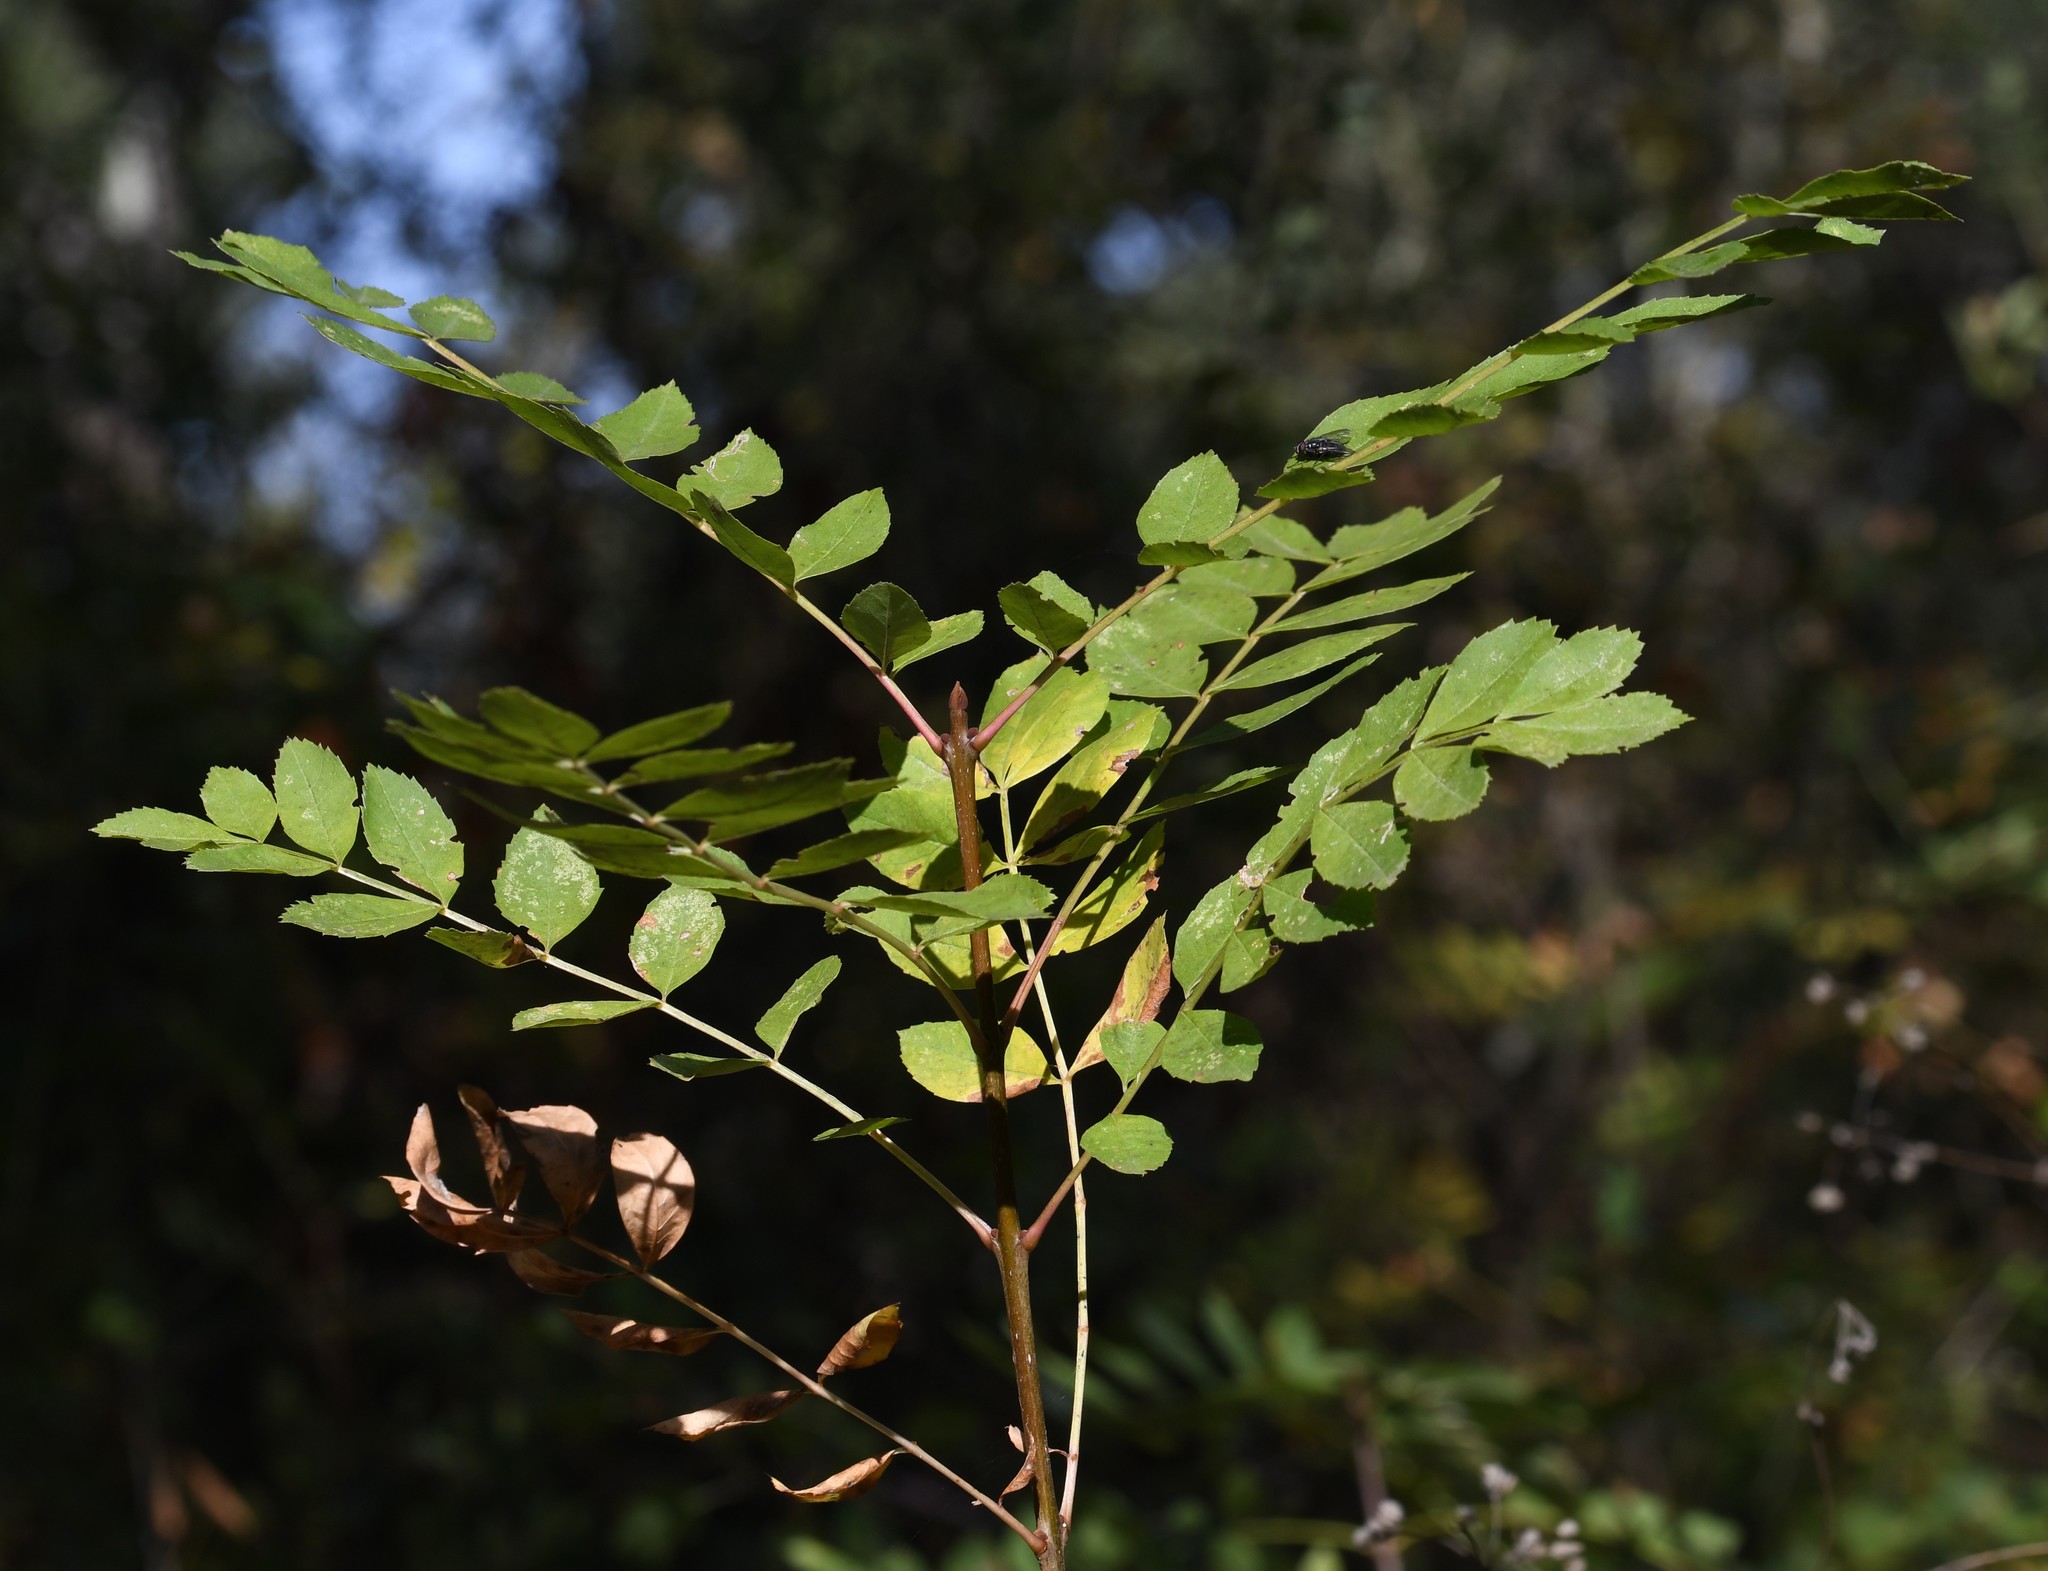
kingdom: Plantae
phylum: Tracheophyta
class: Magnoliopsida
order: Lamiales
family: Oleaceae
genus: Fraxinus
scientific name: Fraxinus angustifolia
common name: Narrow-leafed ash
